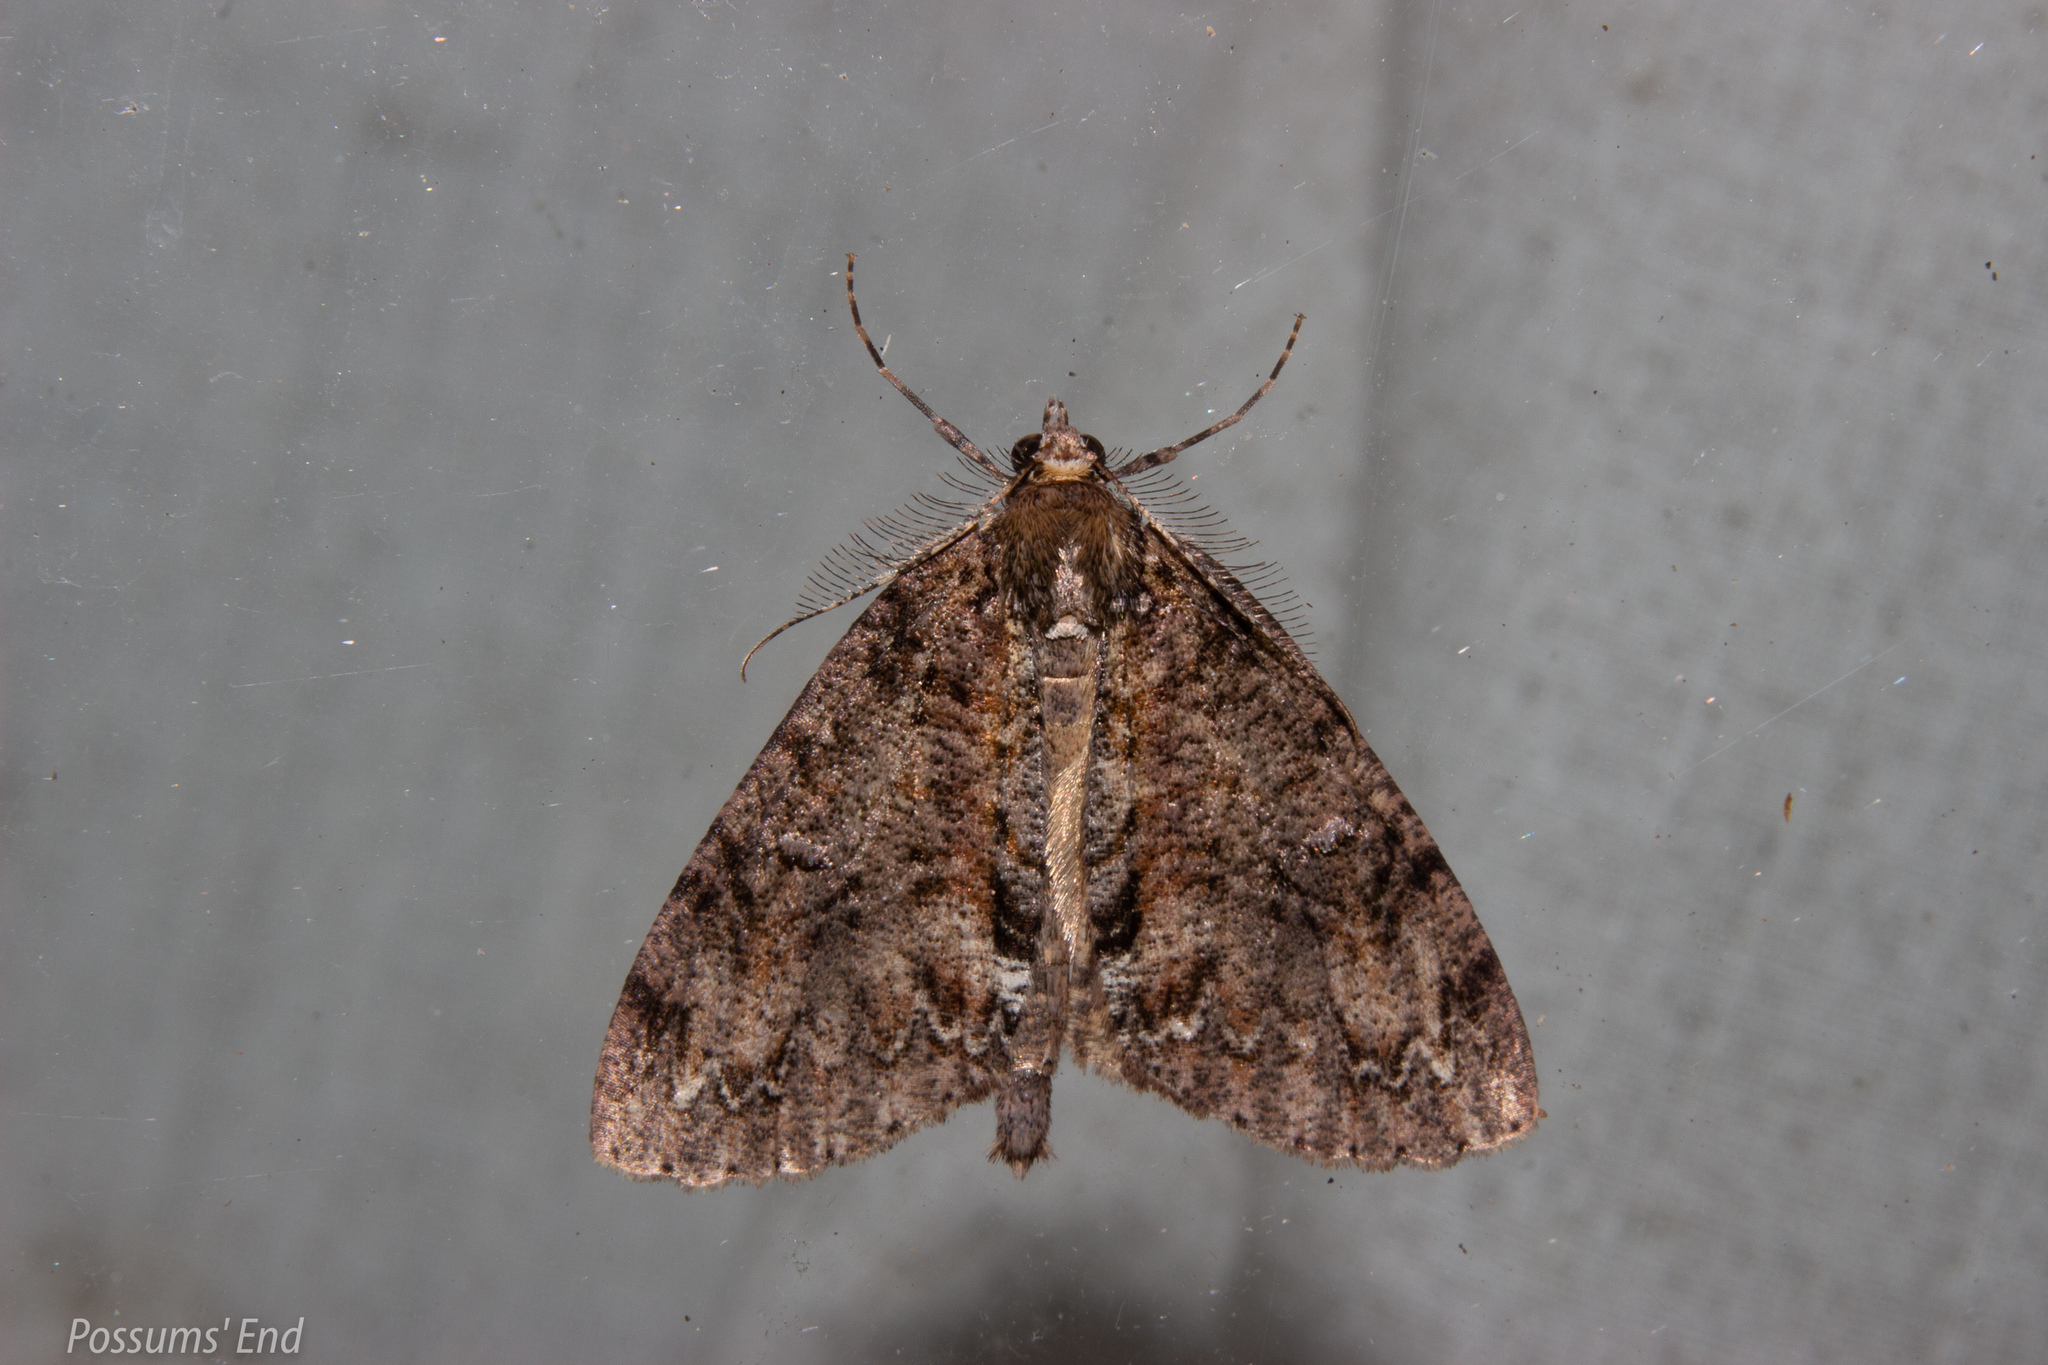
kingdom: Animalia
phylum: Arthropoda
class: Insecta
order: Lepidoptera
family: Geometridae
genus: Pseudocoremia
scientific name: Pseudocoremia suavis
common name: Common forest looper
